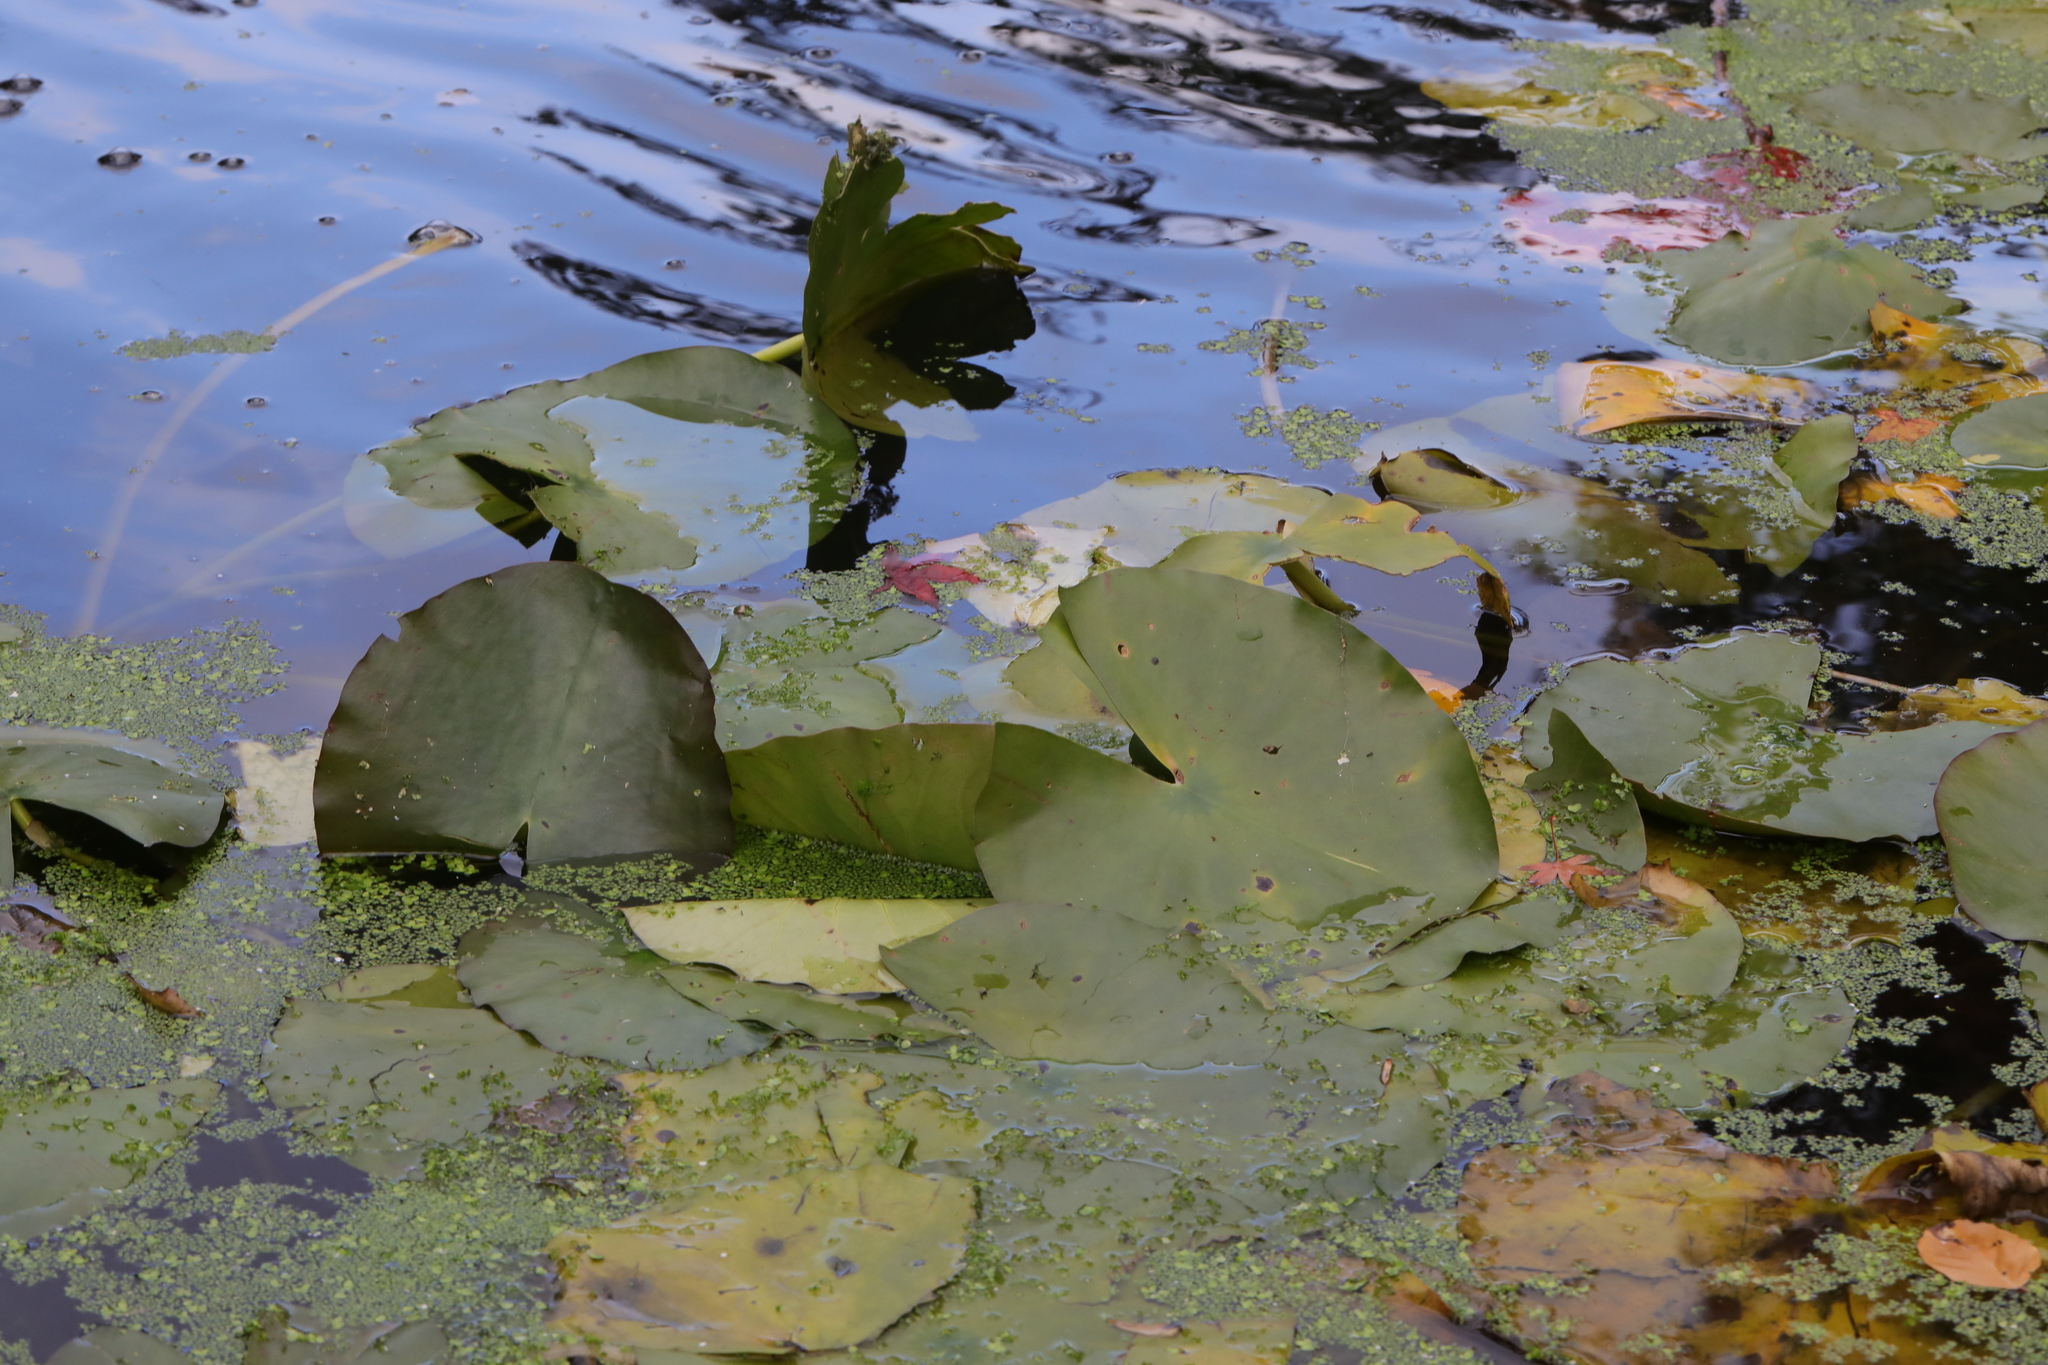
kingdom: Plantae
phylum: Tracheophyta
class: Magnoliopsida
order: Nymphaeales
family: Nymphaeaceae
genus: Nuphar
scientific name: Nuphar lutea
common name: Yellow water-lily
